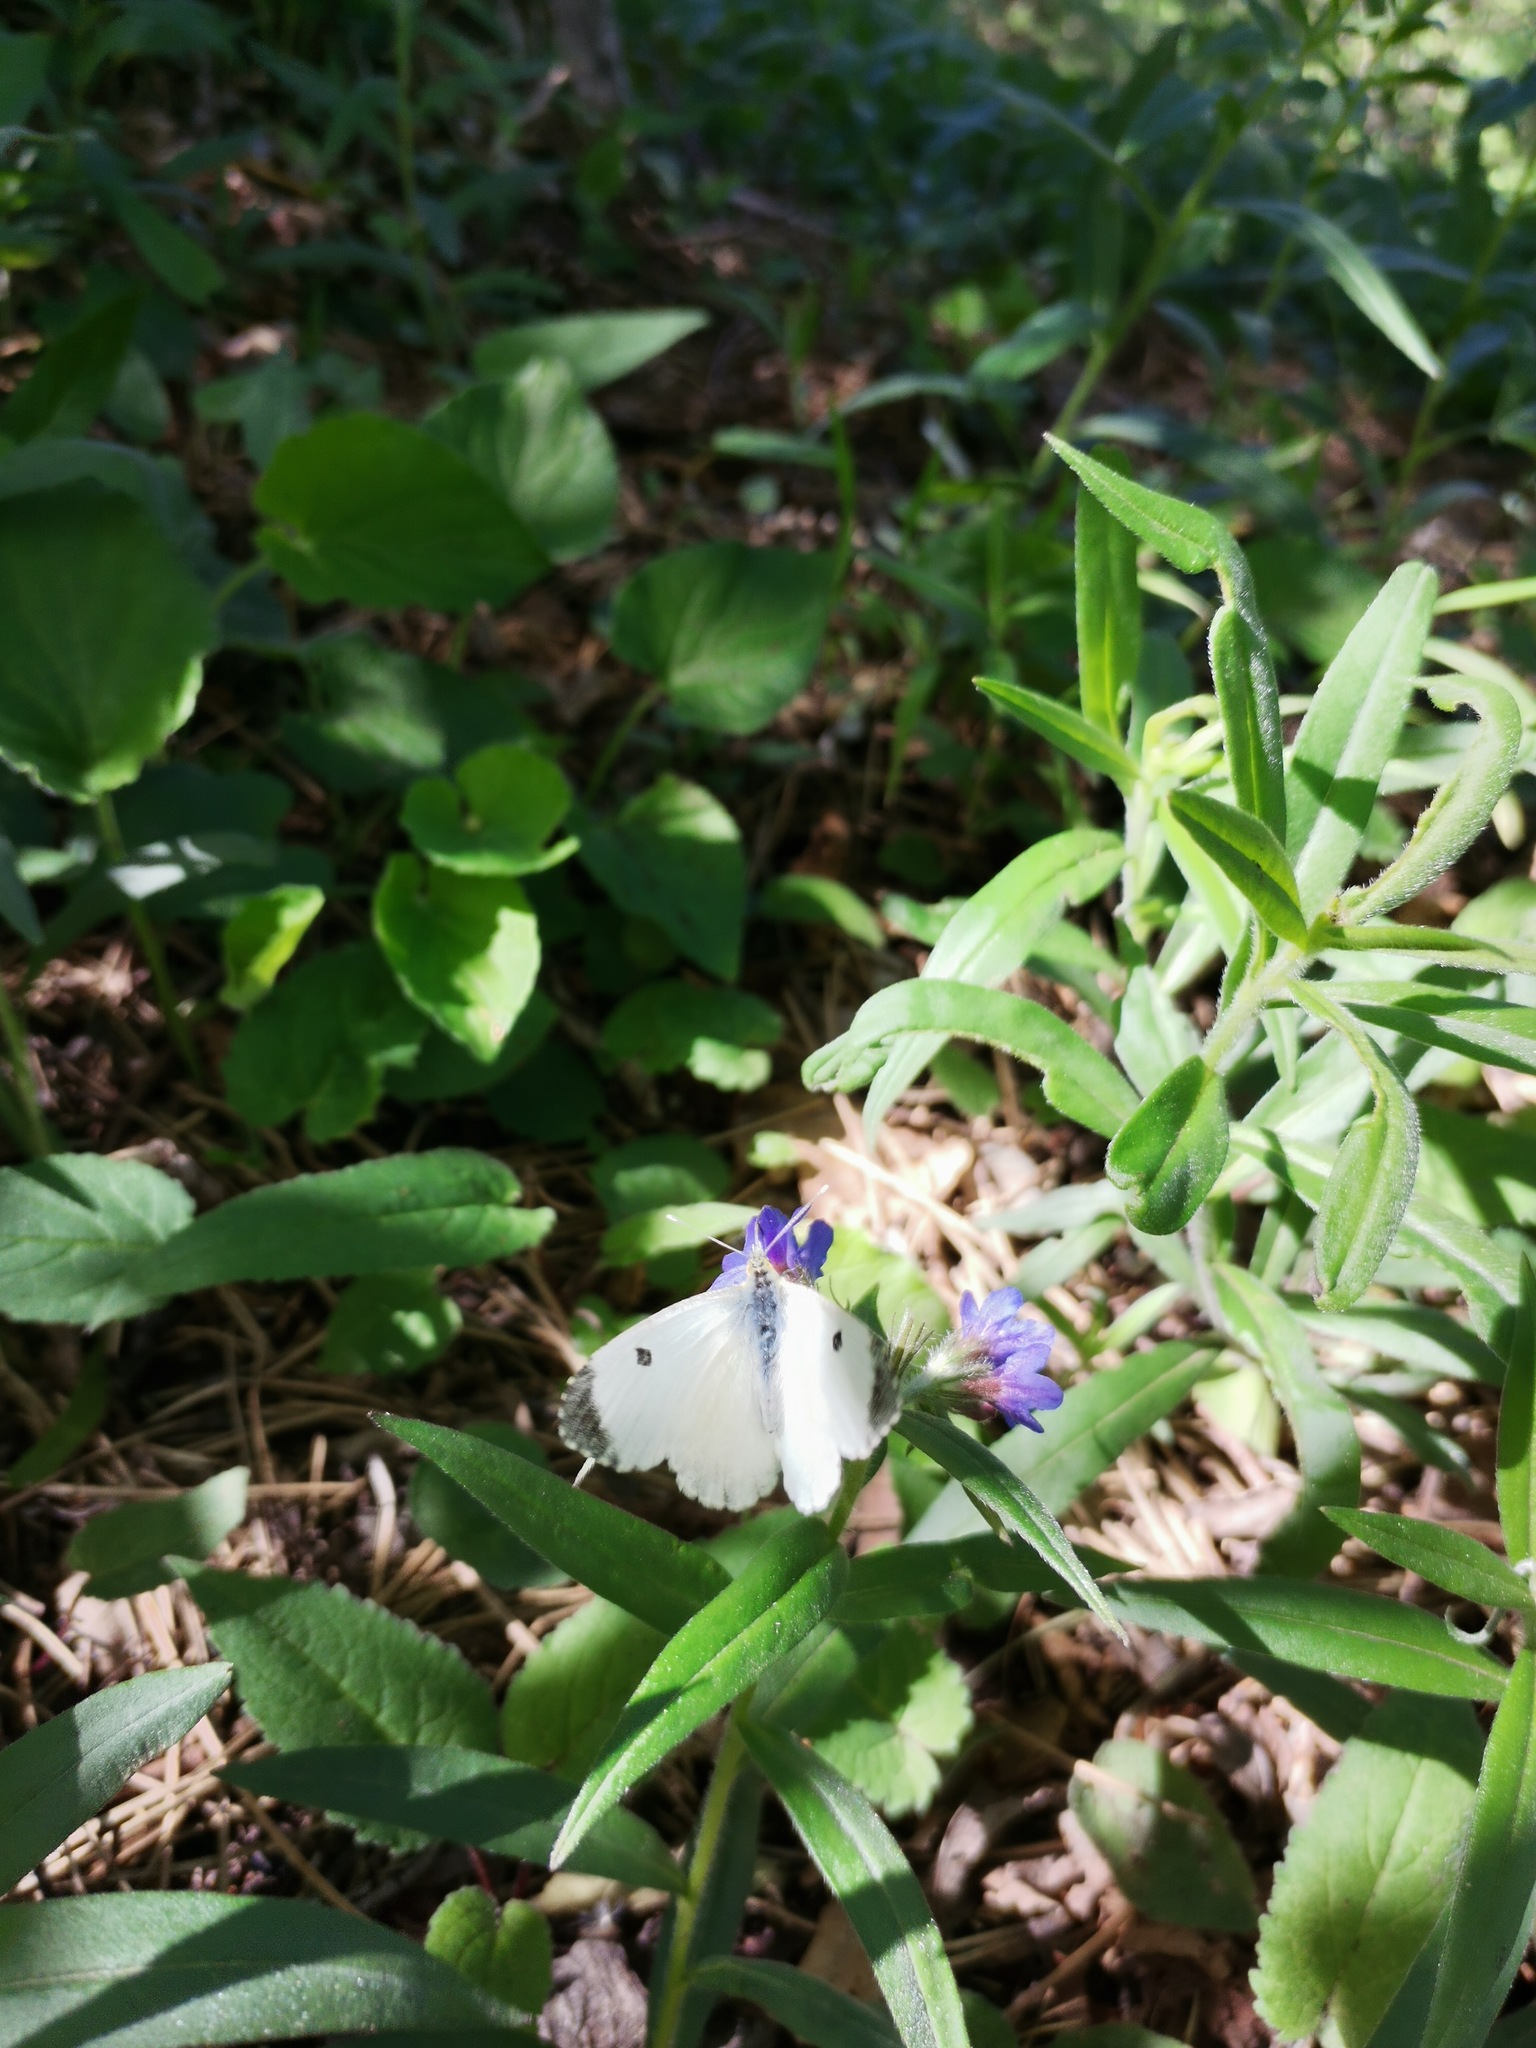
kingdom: Animalia
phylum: Arthropoda
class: Insecta
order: Lepidoptera
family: Pieridae
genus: Anthocharis
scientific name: Anthocharis cardamines
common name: Orange-tip
